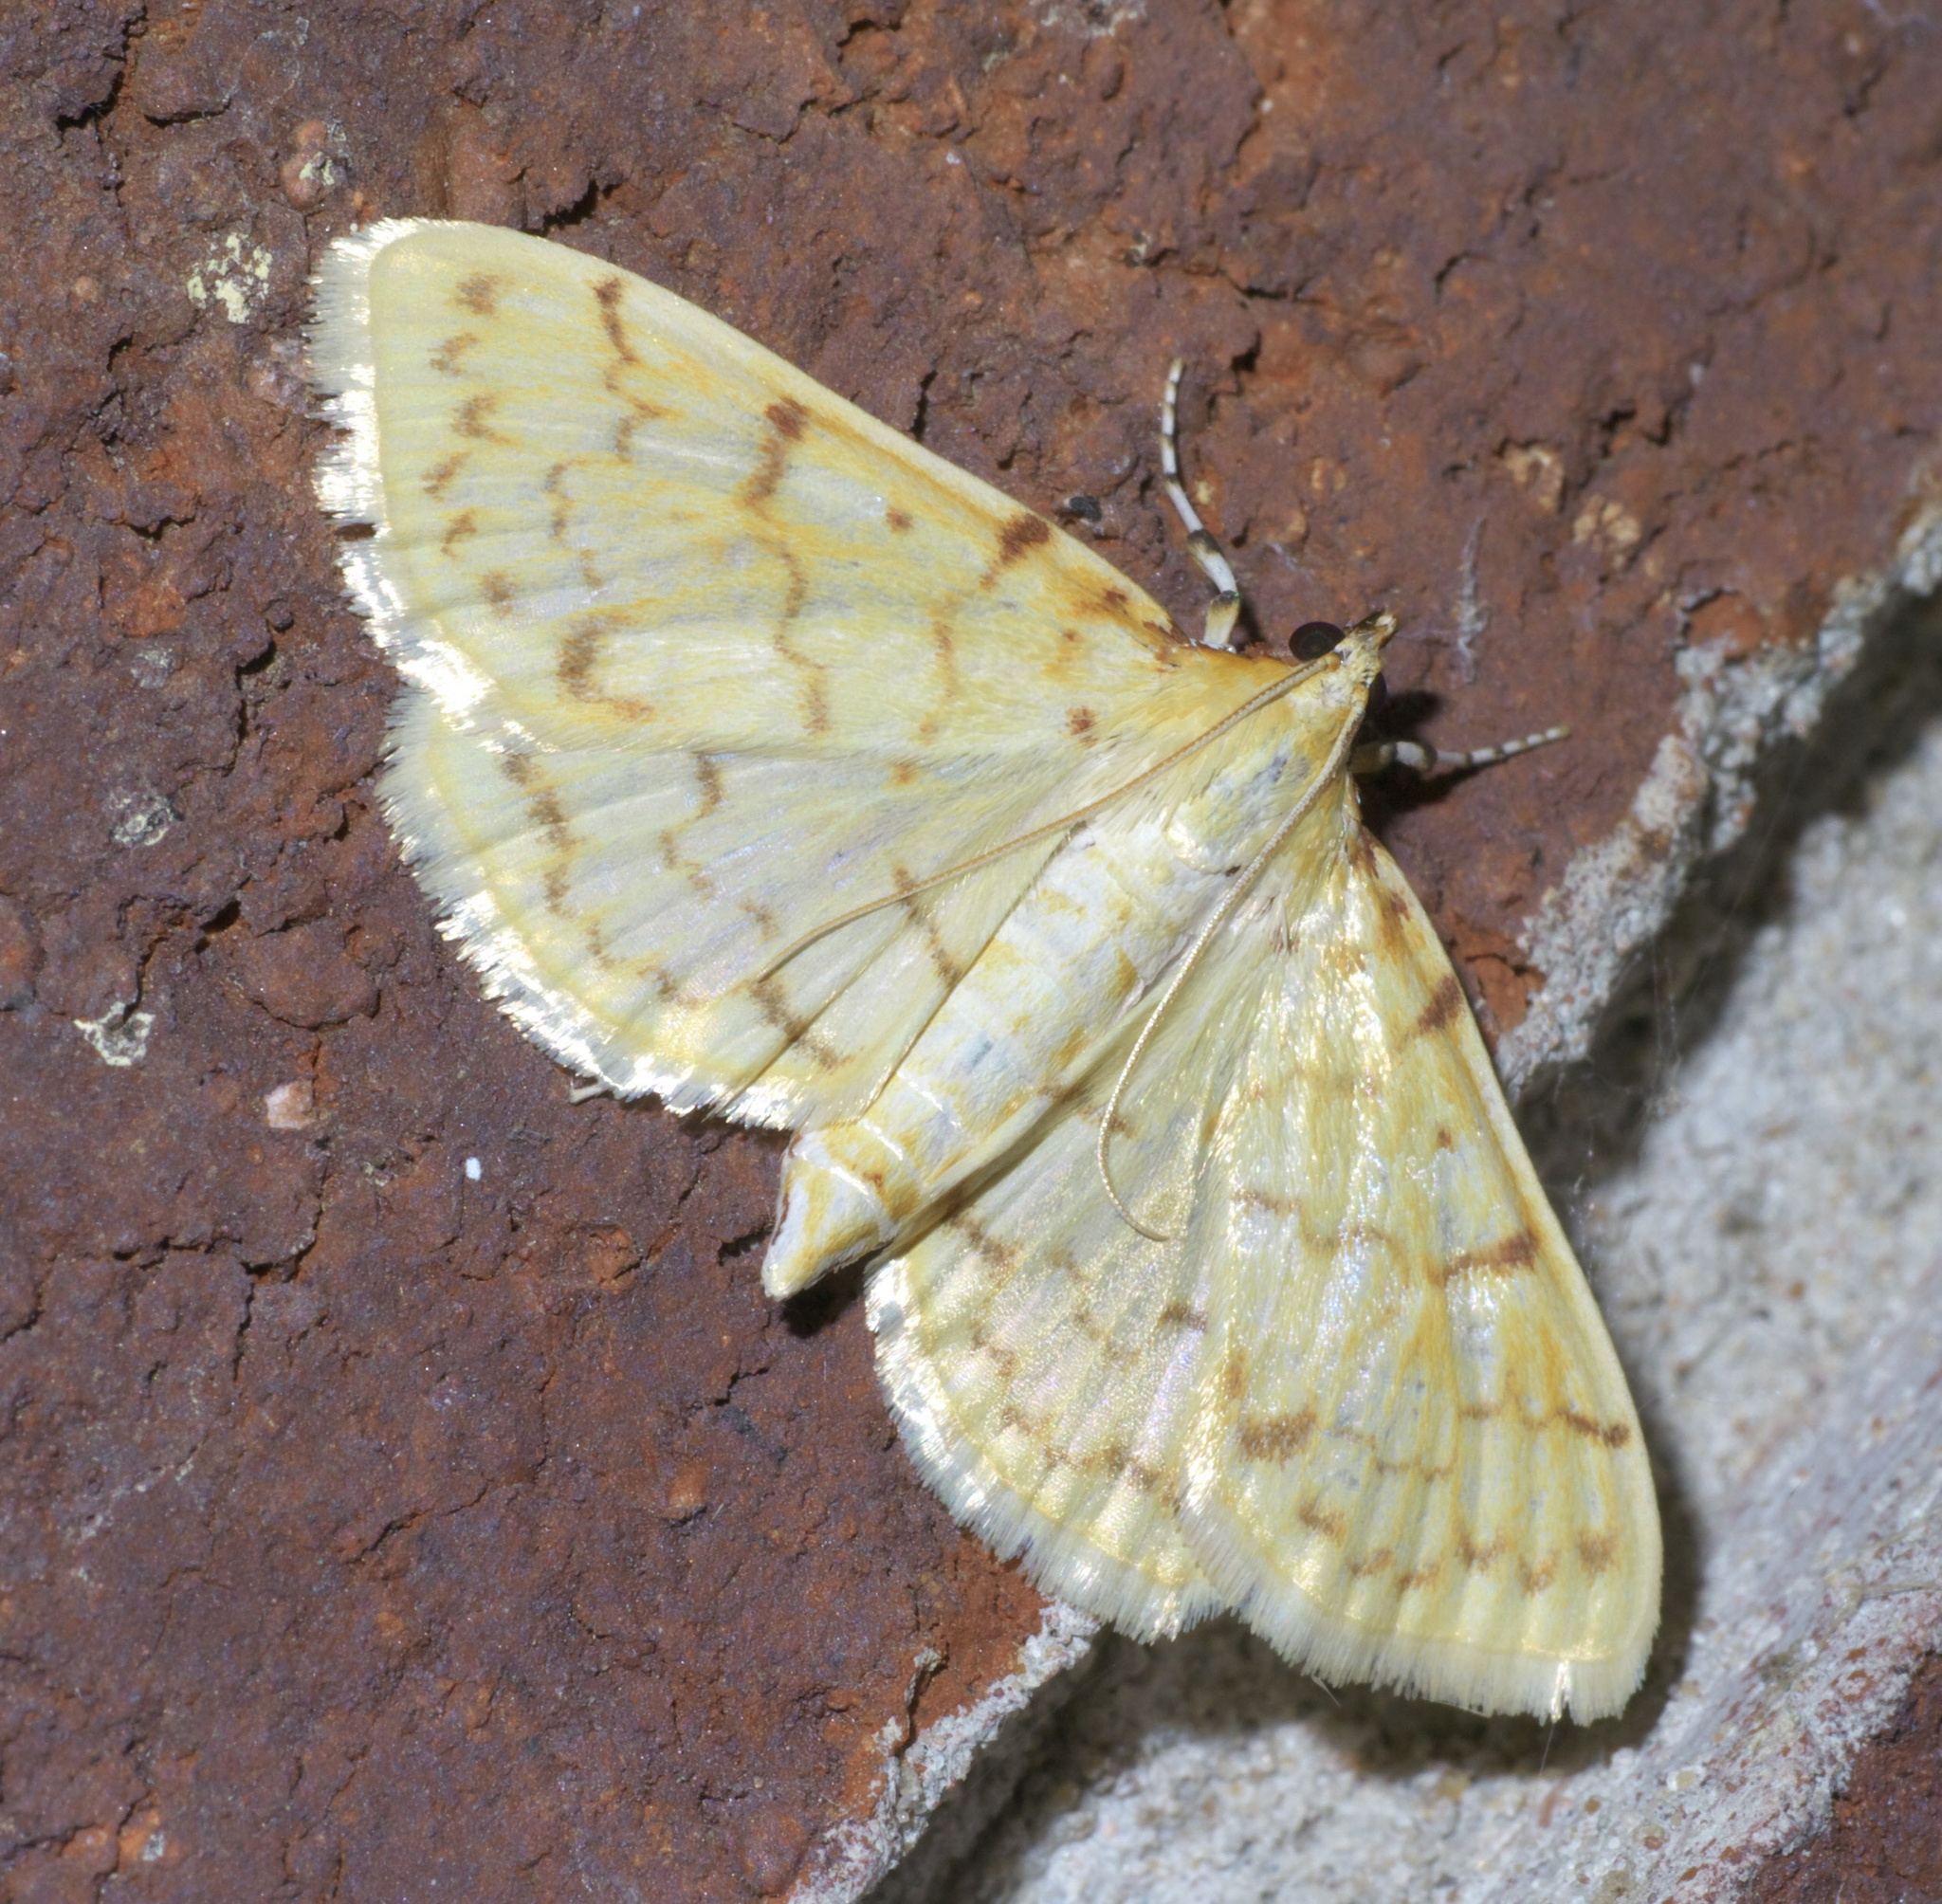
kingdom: Animalia
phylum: Arthropoda
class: Insecta
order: Lepidoptera
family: Crambidae
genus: Polygrammodes
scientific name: Polygrammodes flavidalis
